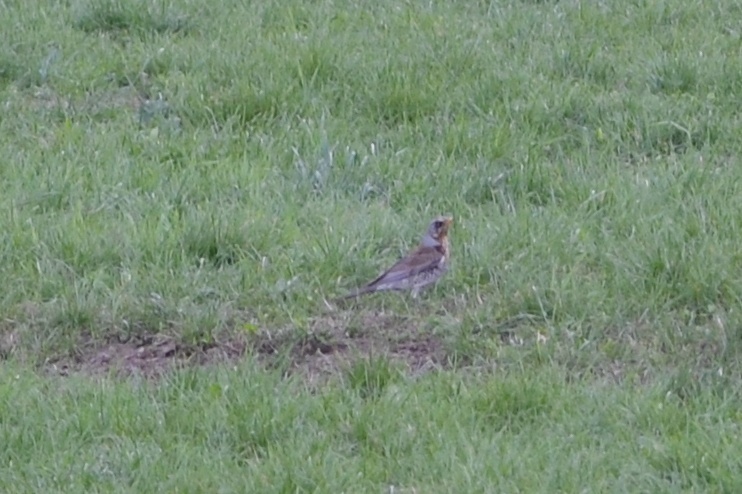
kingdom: Animalia
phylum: Chordata
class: Aves
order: Passeriformes
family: Turdidae
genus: Turdus
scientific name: Turdus pilaris
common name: Fieldfare
